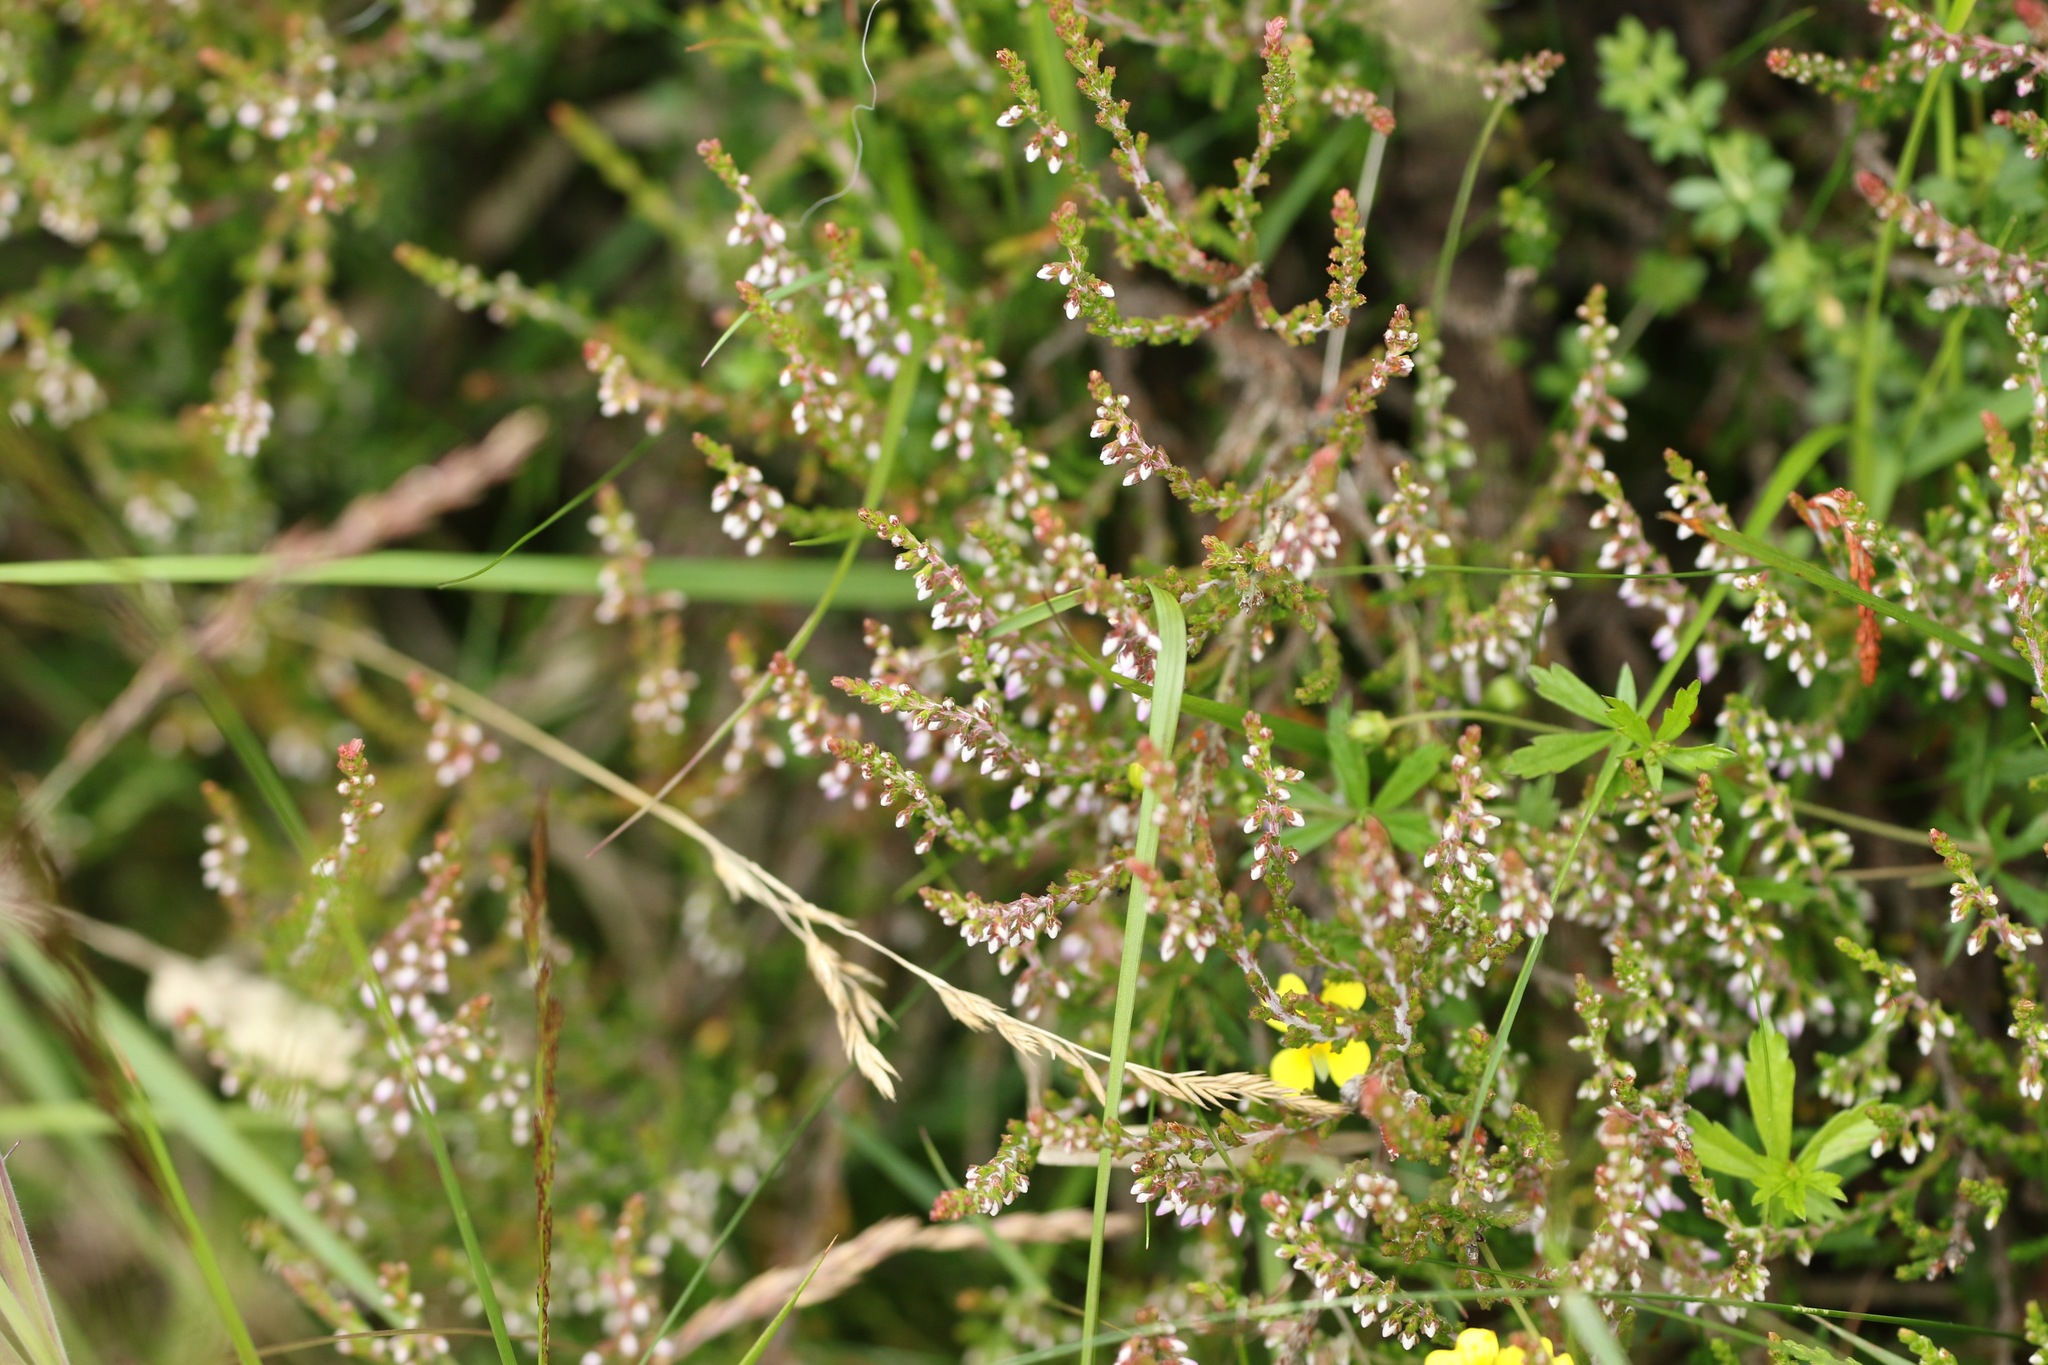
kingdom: Plantae
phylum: Tracheophyta
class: Magnoliopsida
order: Ericales
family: Ericaceae
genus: Calluna
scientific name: Calluna vulgaris
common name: Heather
